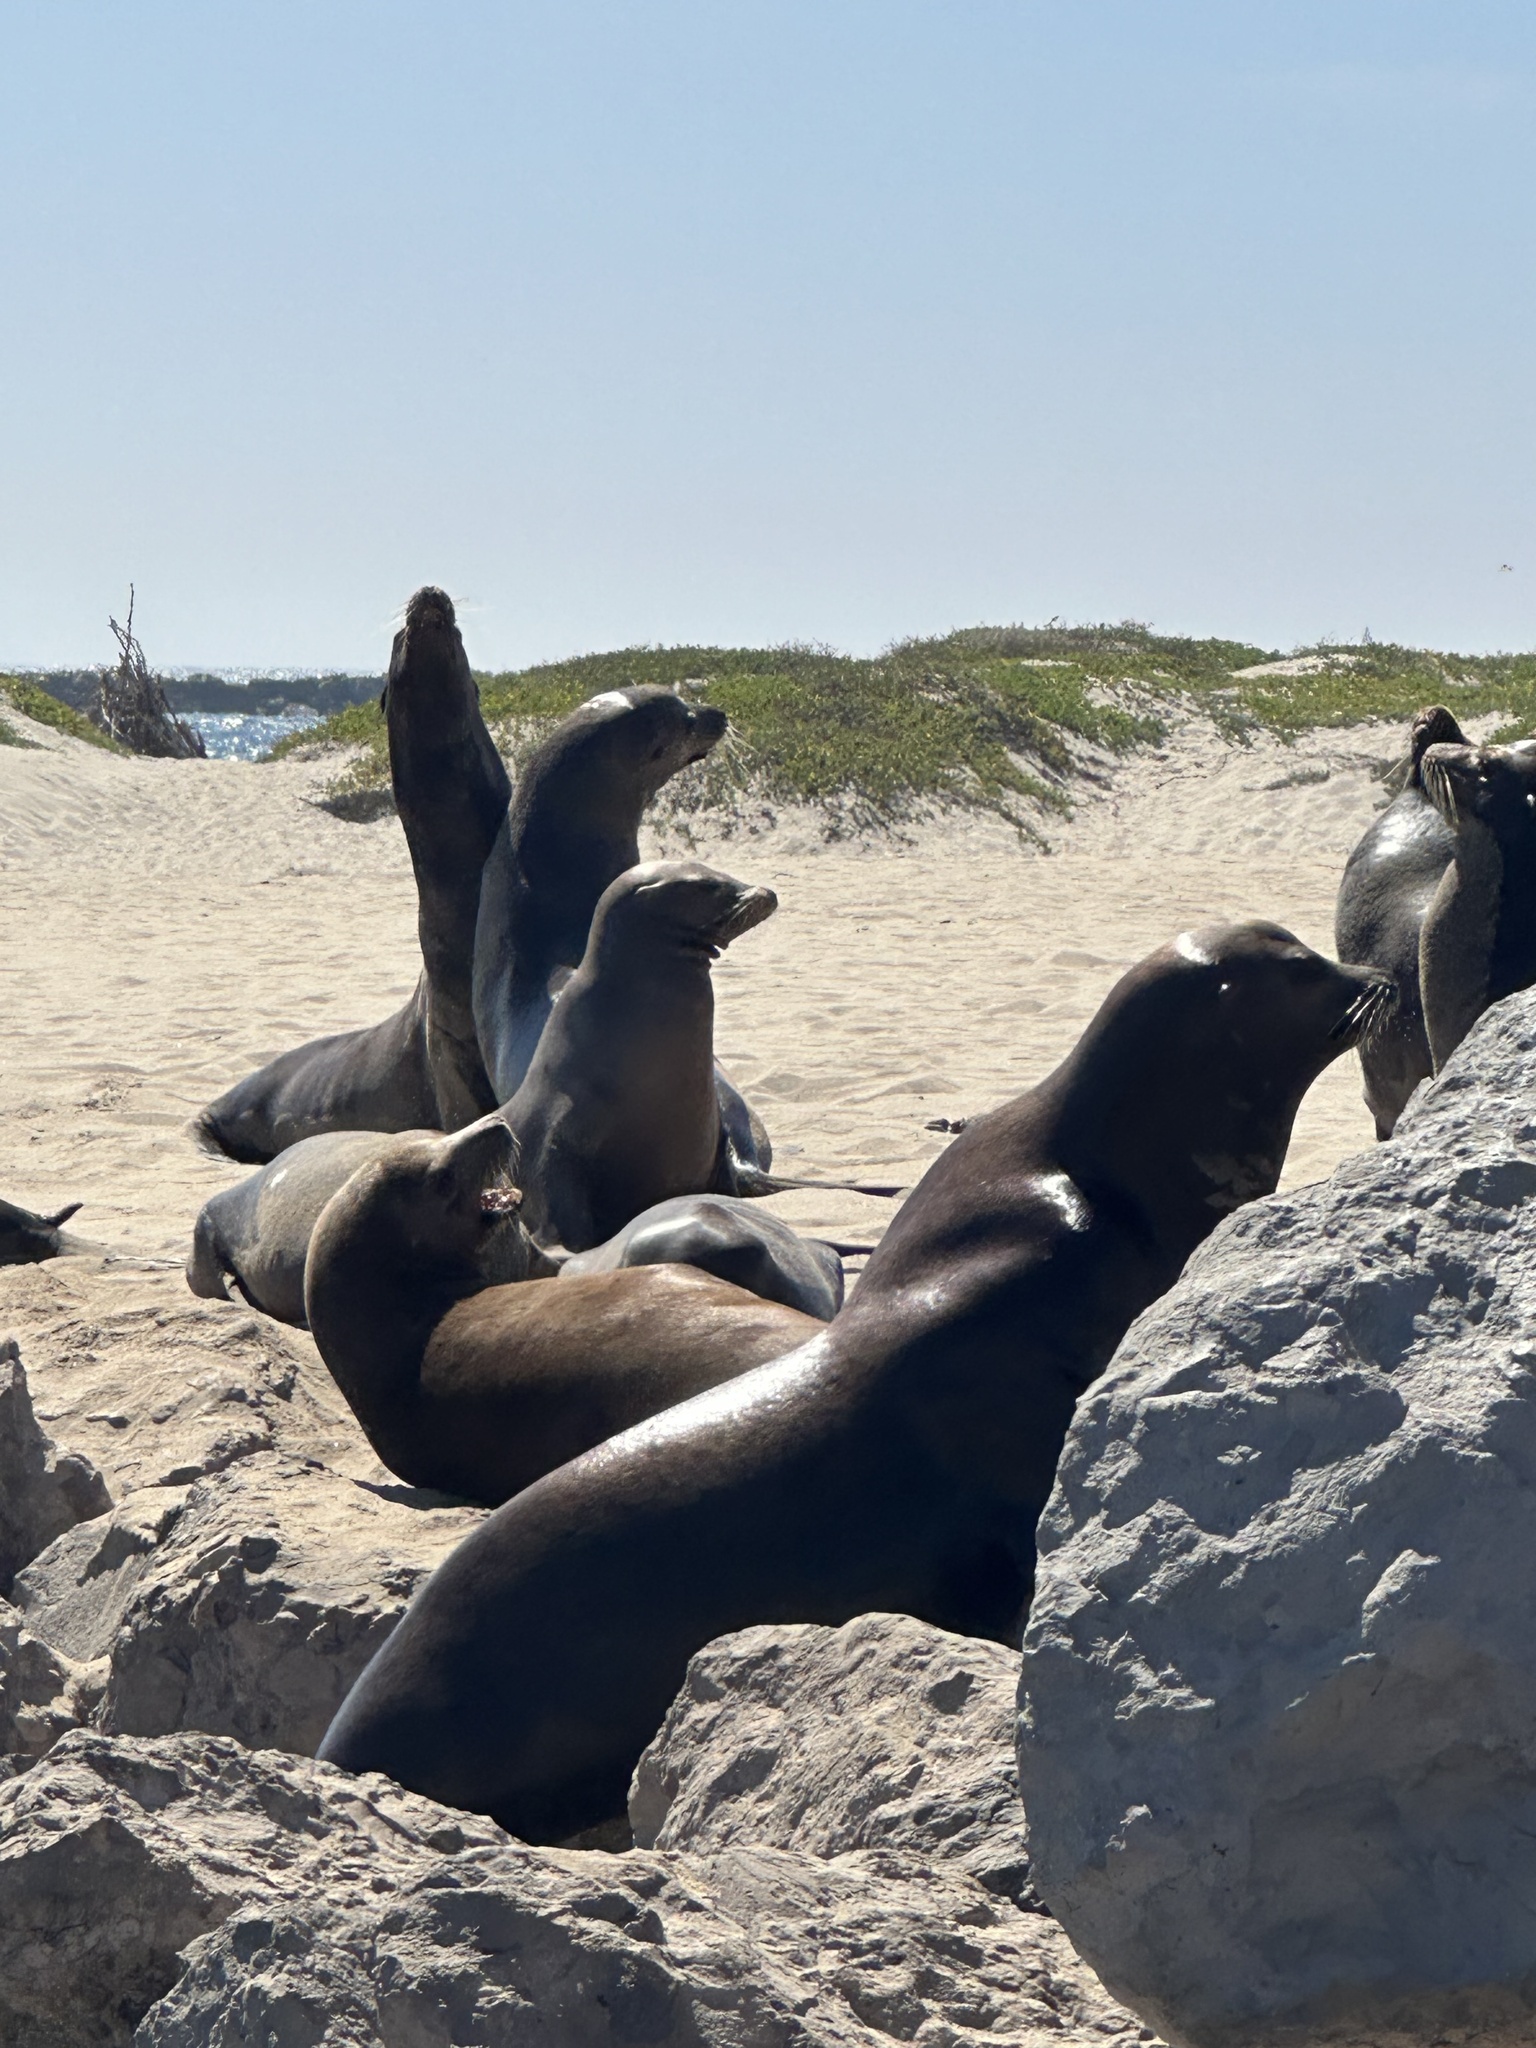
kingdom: Animalia
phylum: Chordata
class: Mammalia
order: Carnivora
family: Otariidae
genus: Zalophus
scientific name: Zalophus californianus
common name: California sea lion
